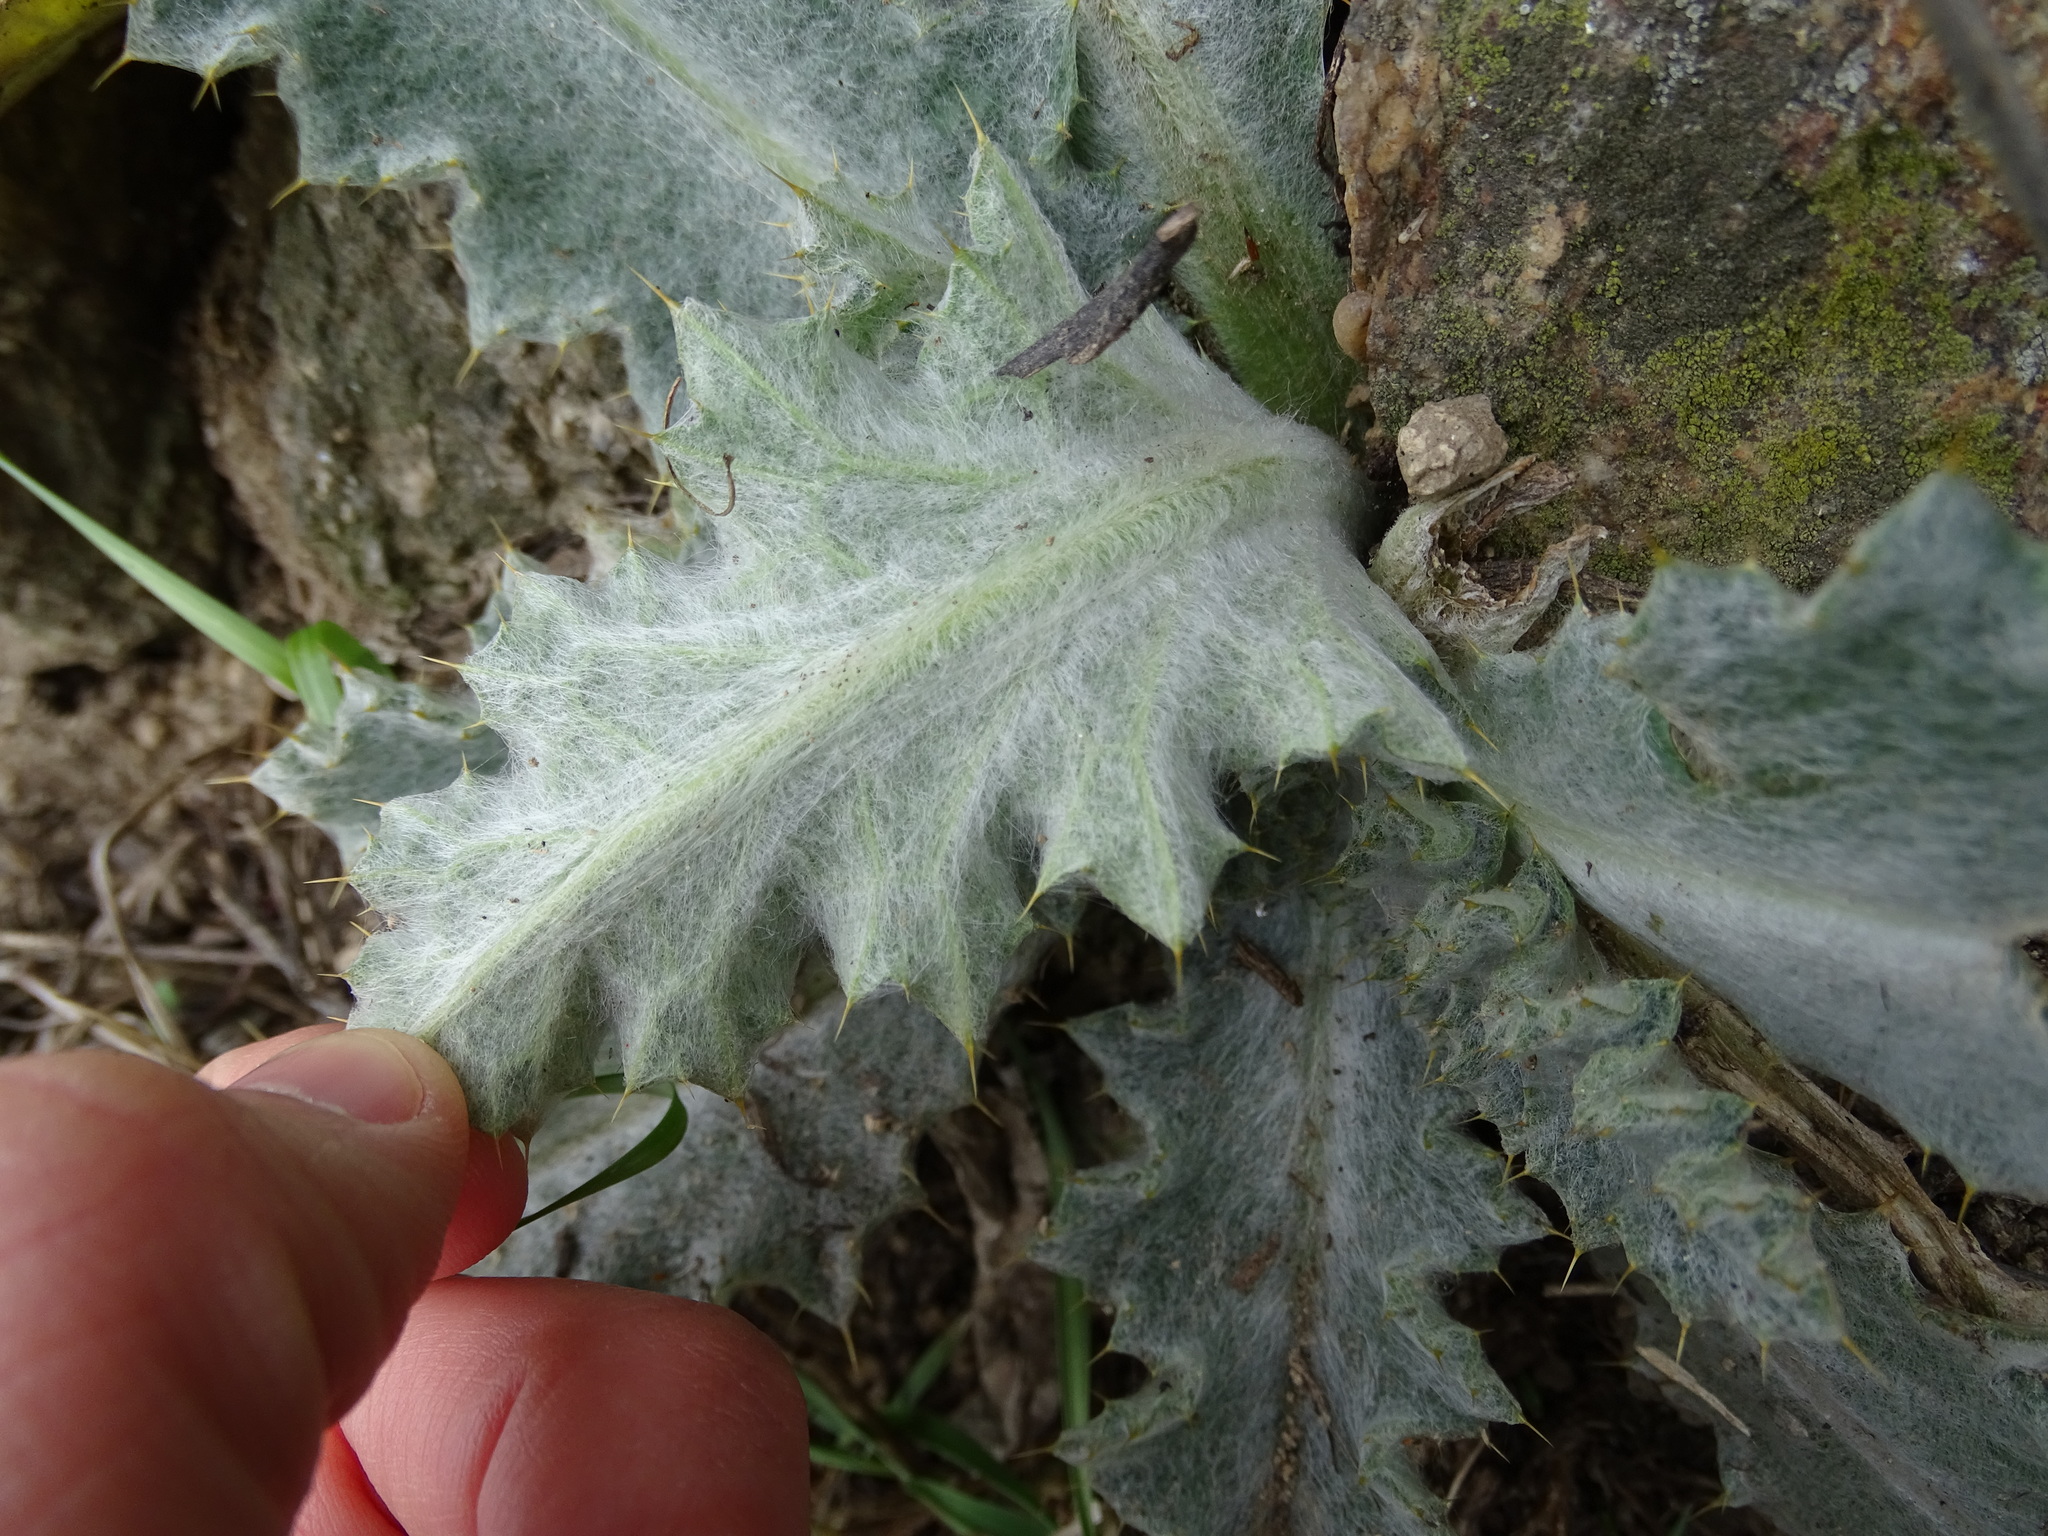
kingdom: Plantae
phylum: Tracheophyta
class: Magnoliopsida
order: Asterales
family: Asteraceae
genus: Onopordum
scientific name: Onopordum acanthium
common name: Scotch thistle
